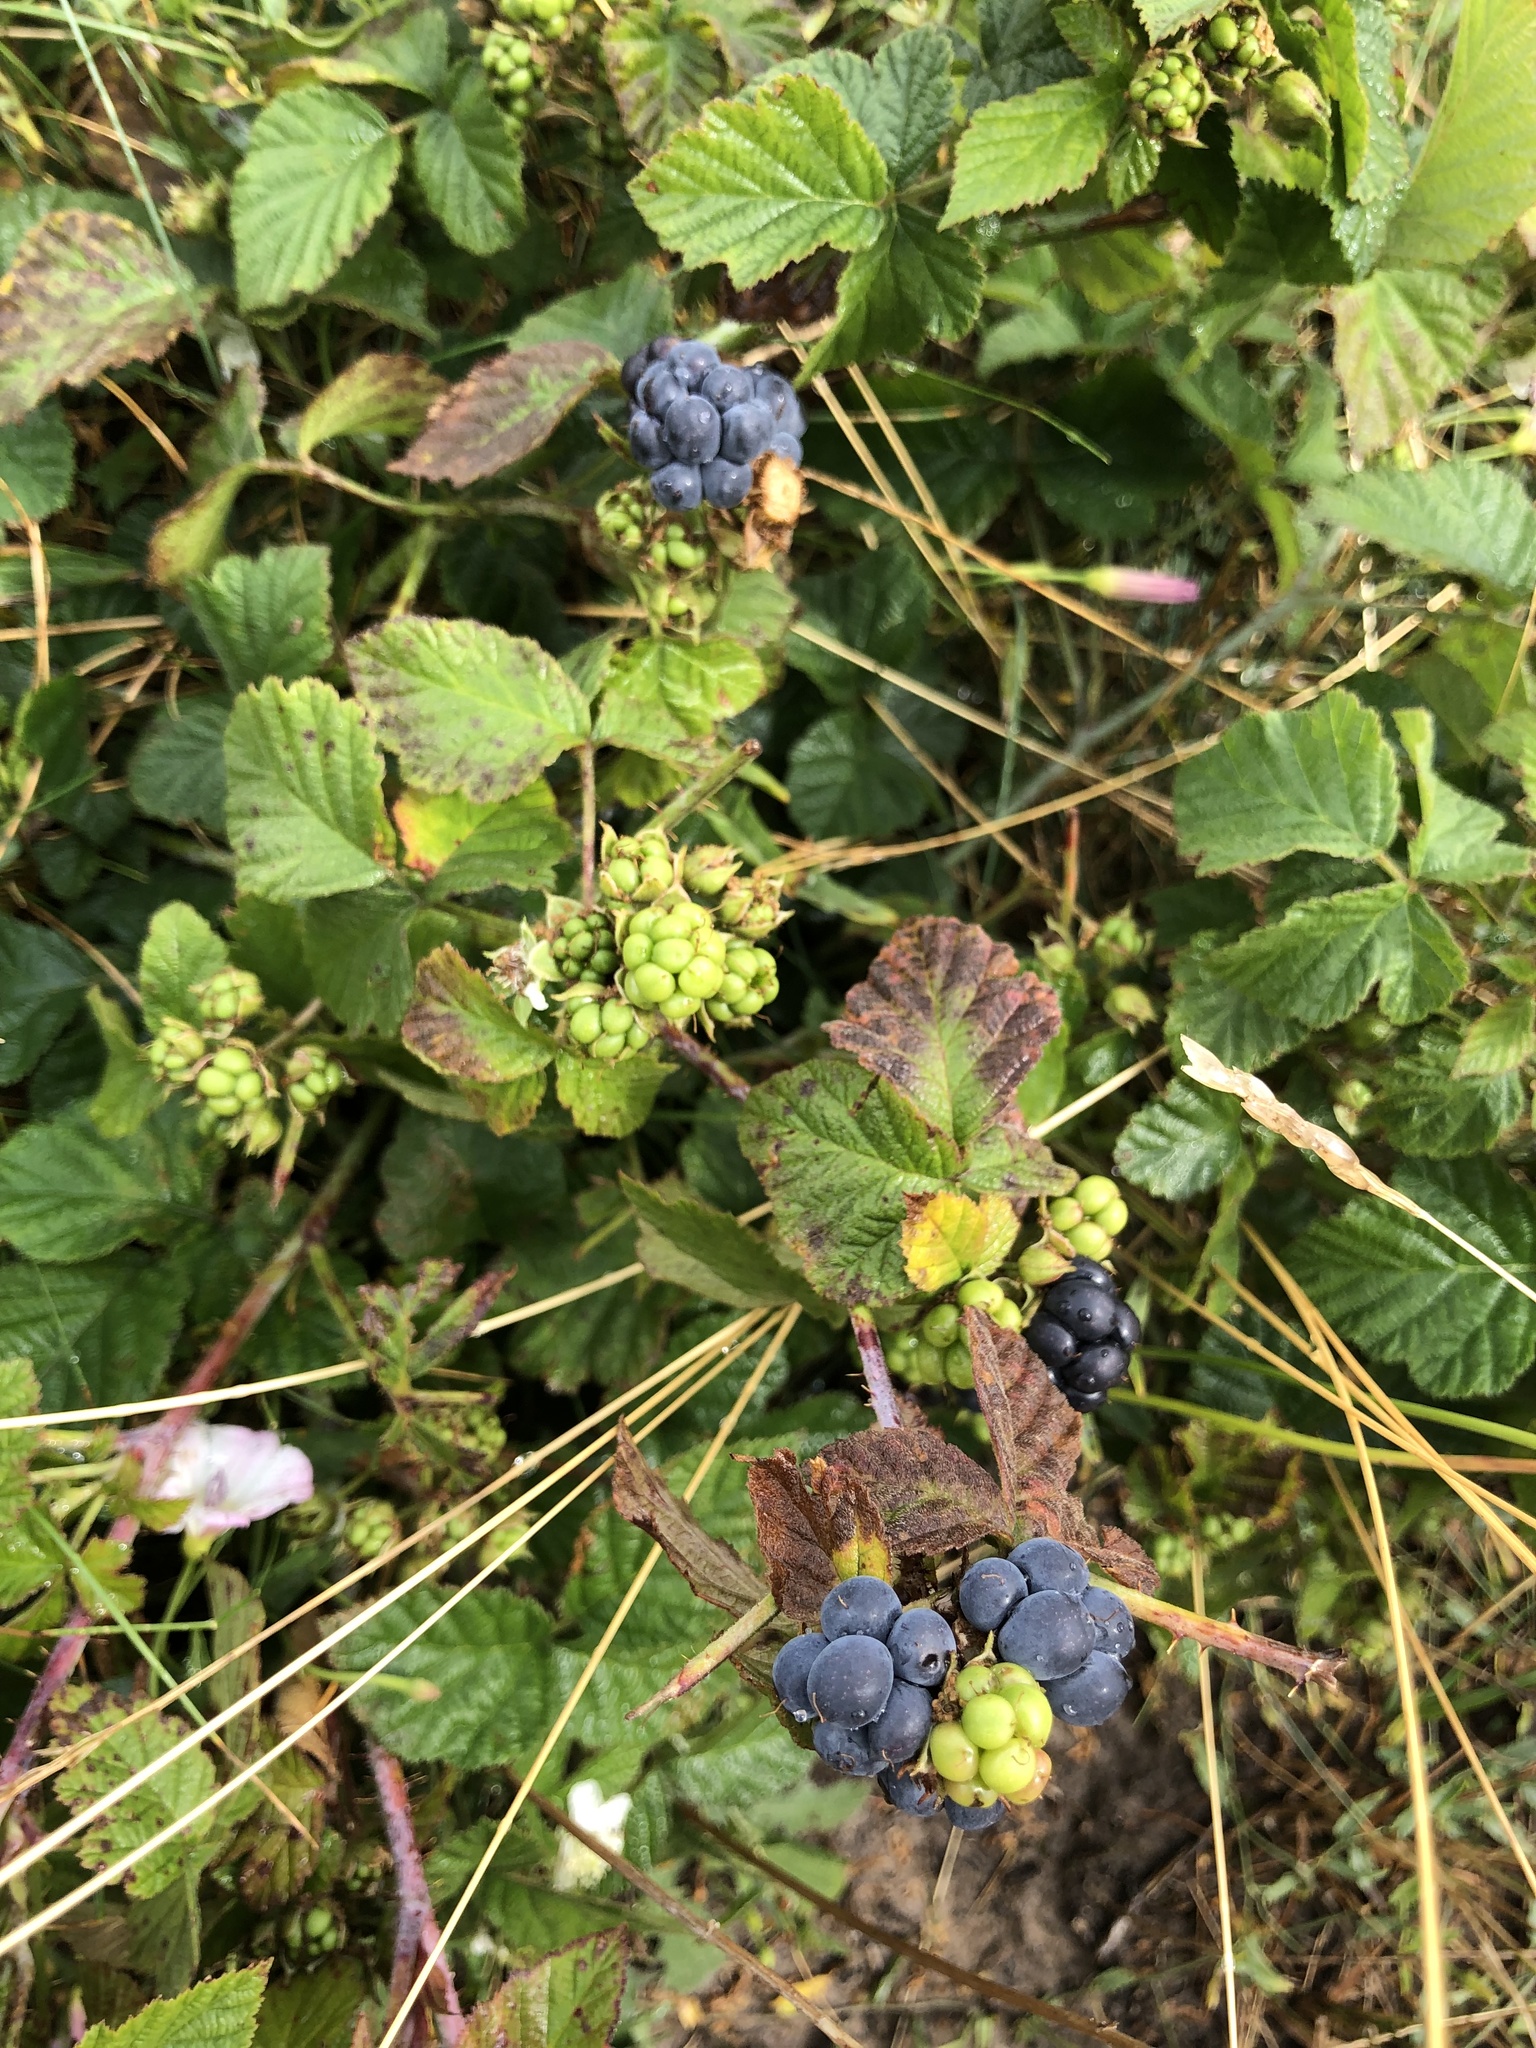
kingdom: Plantae
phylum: Tracheophyta
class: Magnoliopsida
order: Rosales
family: Rosaceae
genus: Rubus
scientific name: Rubus caesius
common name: Dewberry
